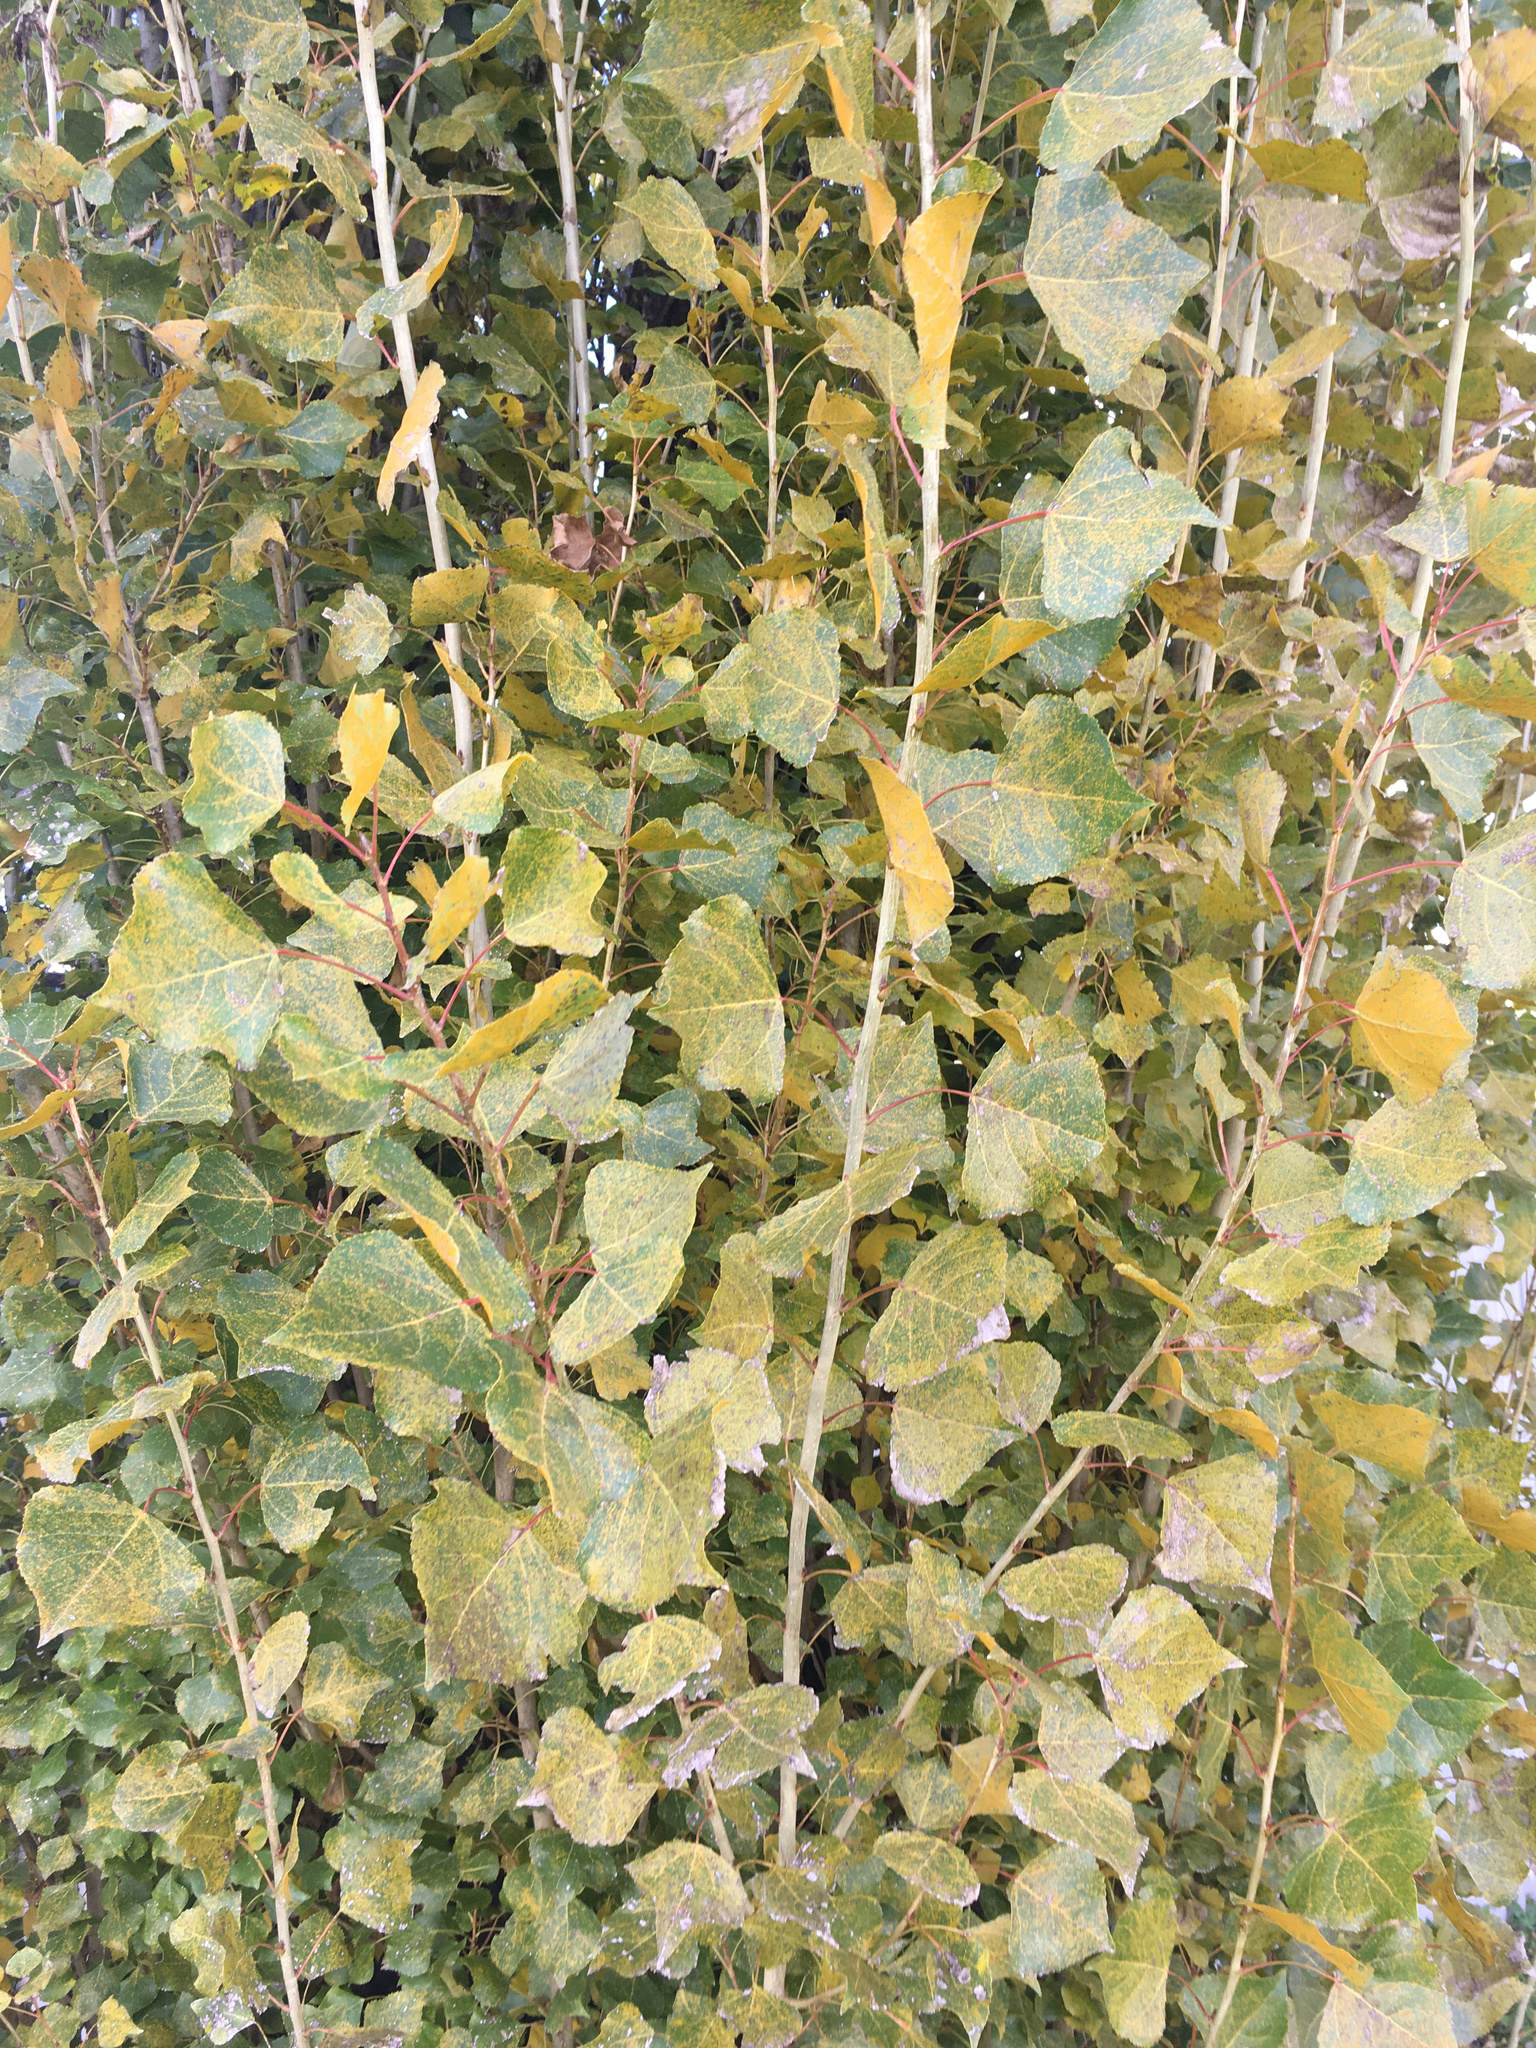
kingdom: Fungi
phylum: Basidiomycota
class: Pucciniomycetes
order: Pucciniales
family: Melampsoraceae
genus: Melampsora
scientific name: Melampsora
